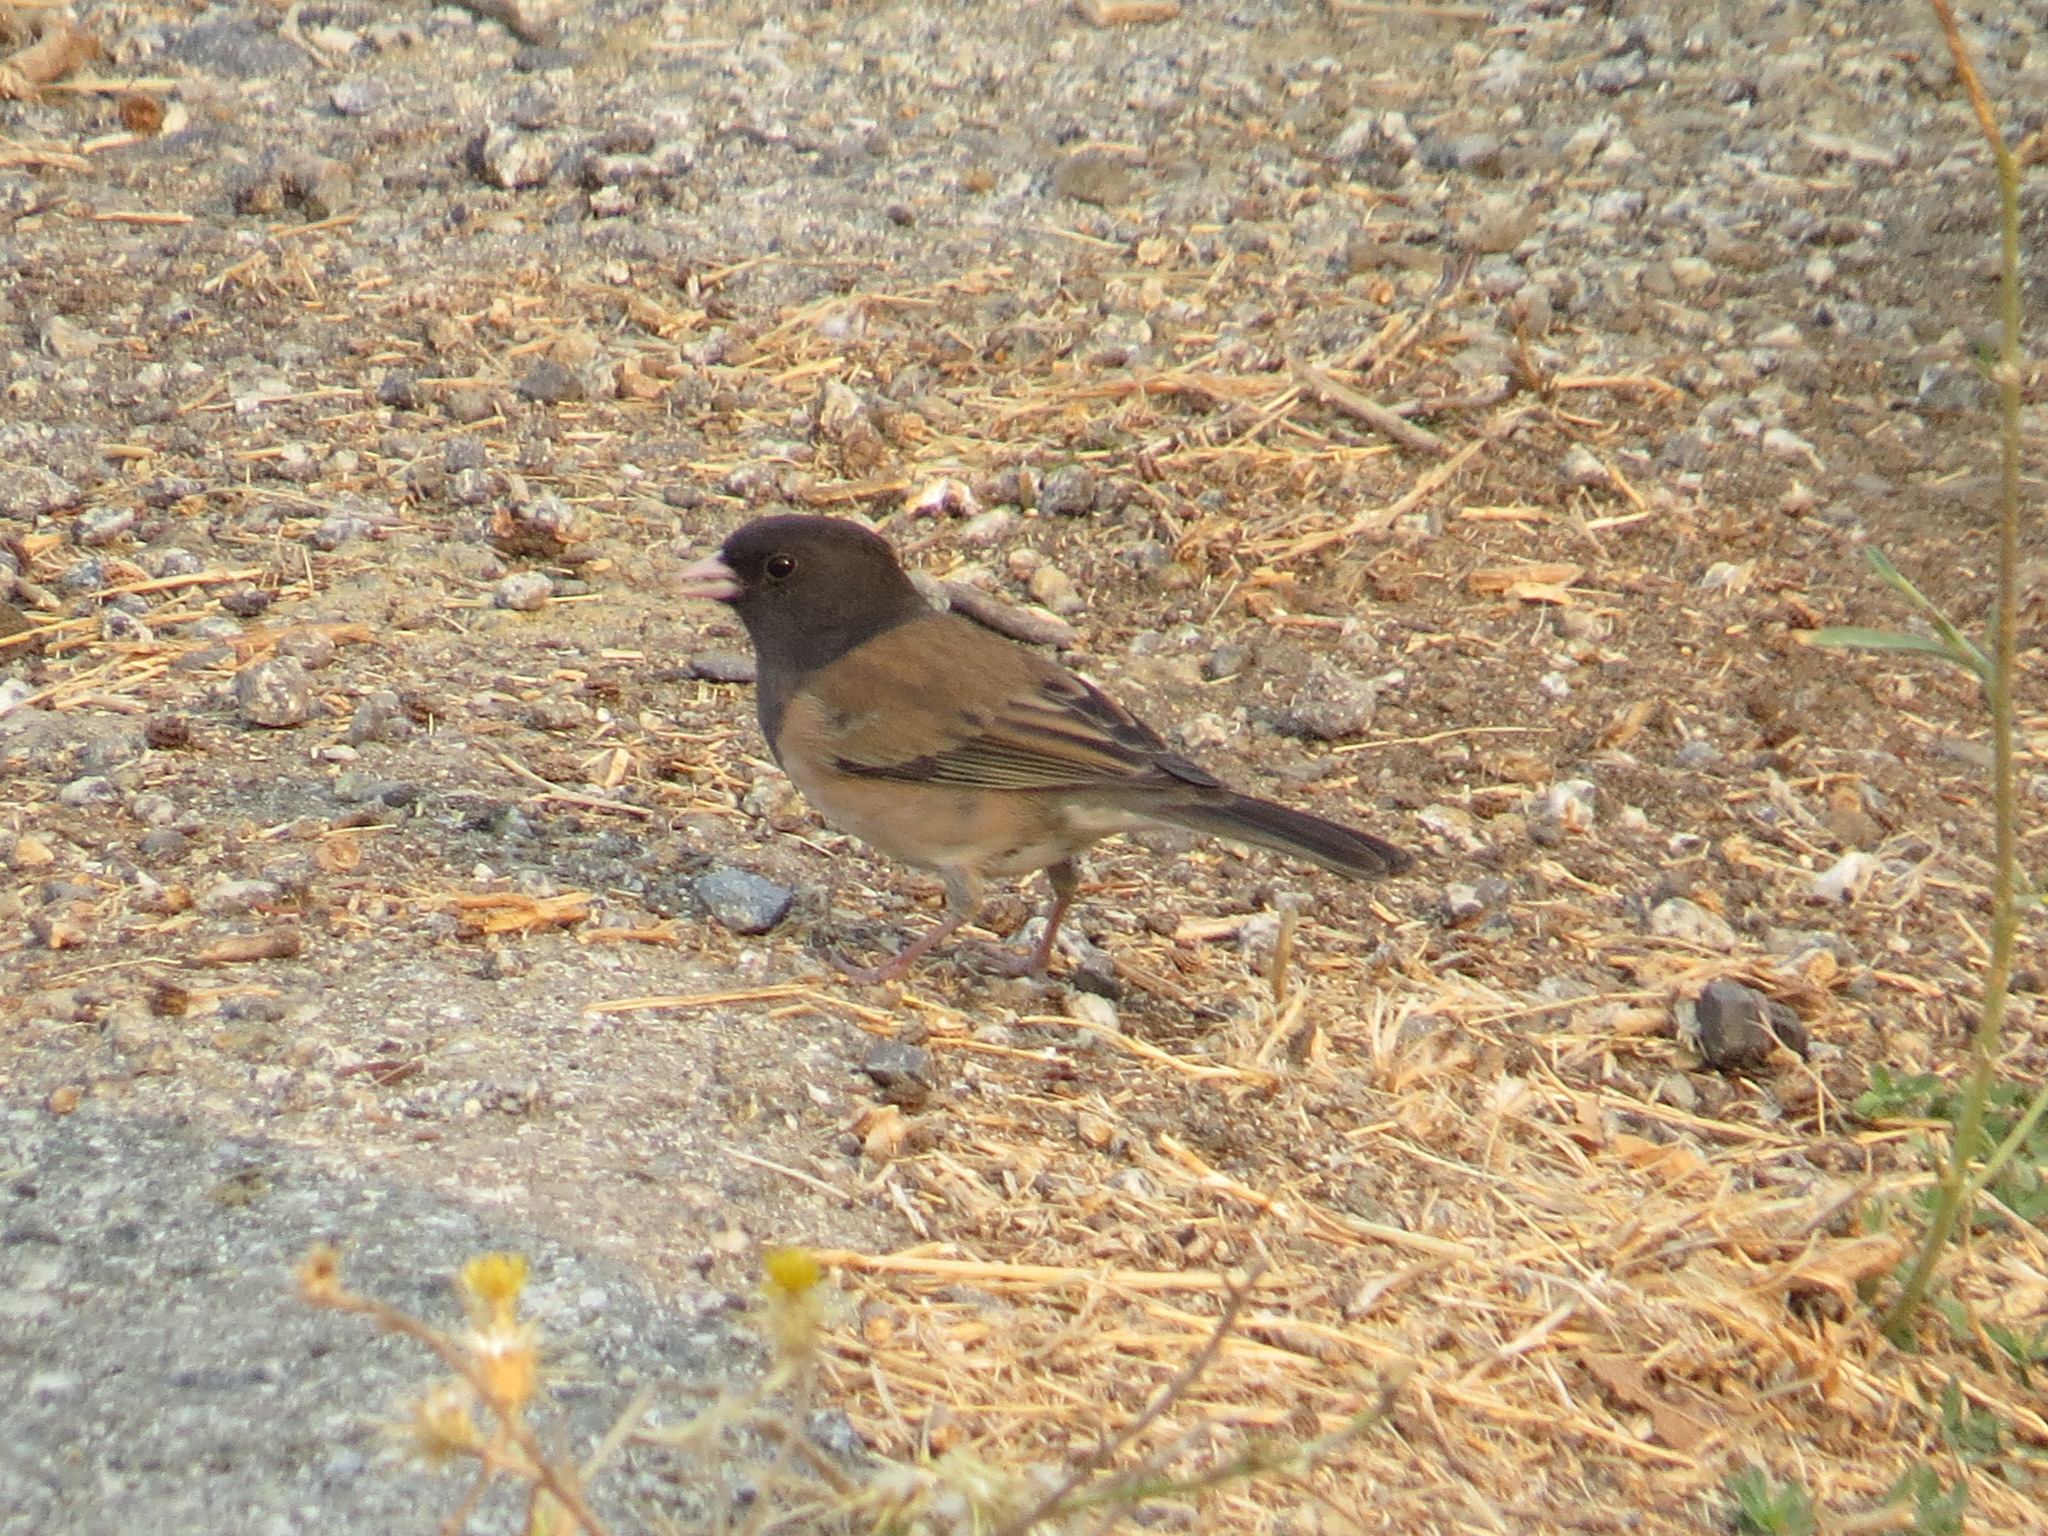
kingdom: Animalia
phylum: Chordata
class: Aves
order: Passeriformes
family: Passerellidae
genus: Junco
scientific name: Junco hyemalis
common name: Dark-eyed junco
